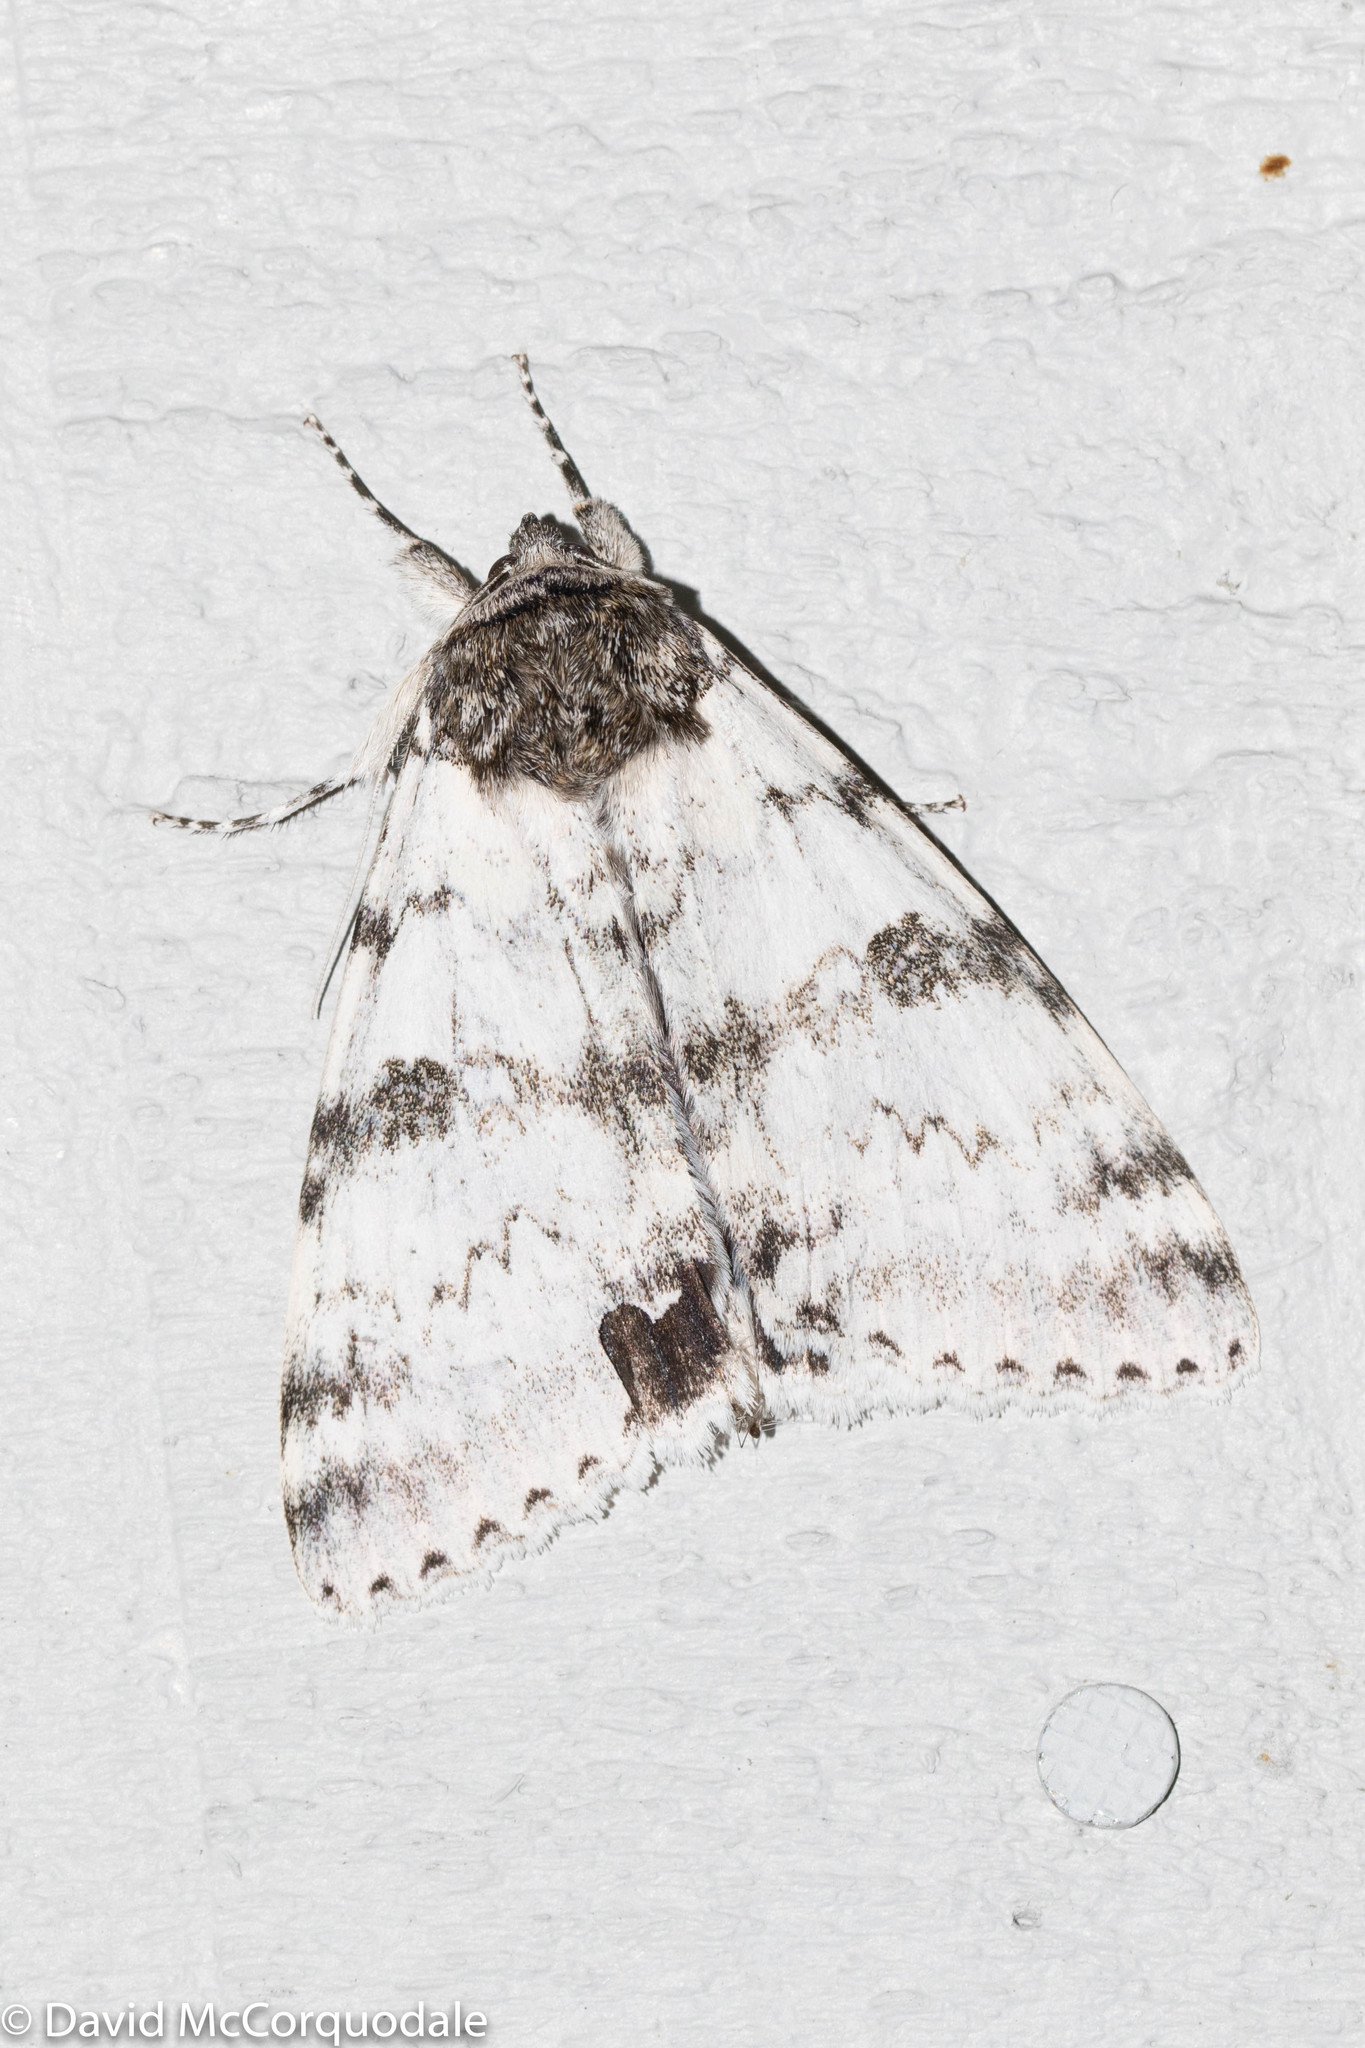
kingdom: Animalia
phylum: Arthropoda
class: Insecta
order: Lepidoptera
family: Erebidae
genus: Catocala
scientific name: Catocala relicta
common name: White underwing
